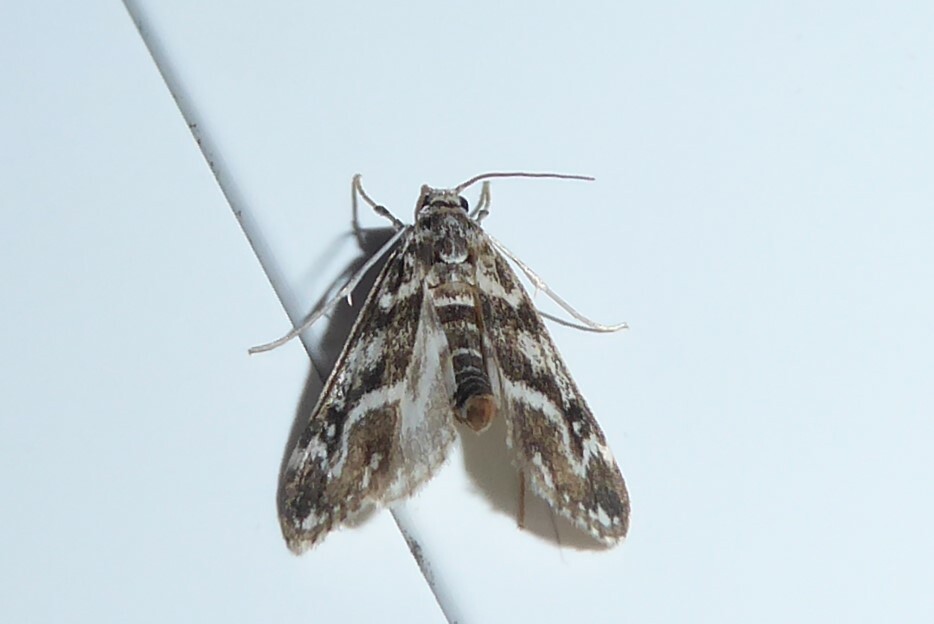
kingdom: Animalia
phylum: Arthropoda
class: Insecta
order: Lepidoptera
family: Crambidae
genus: Hygraula
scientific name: Hygraula nitens
